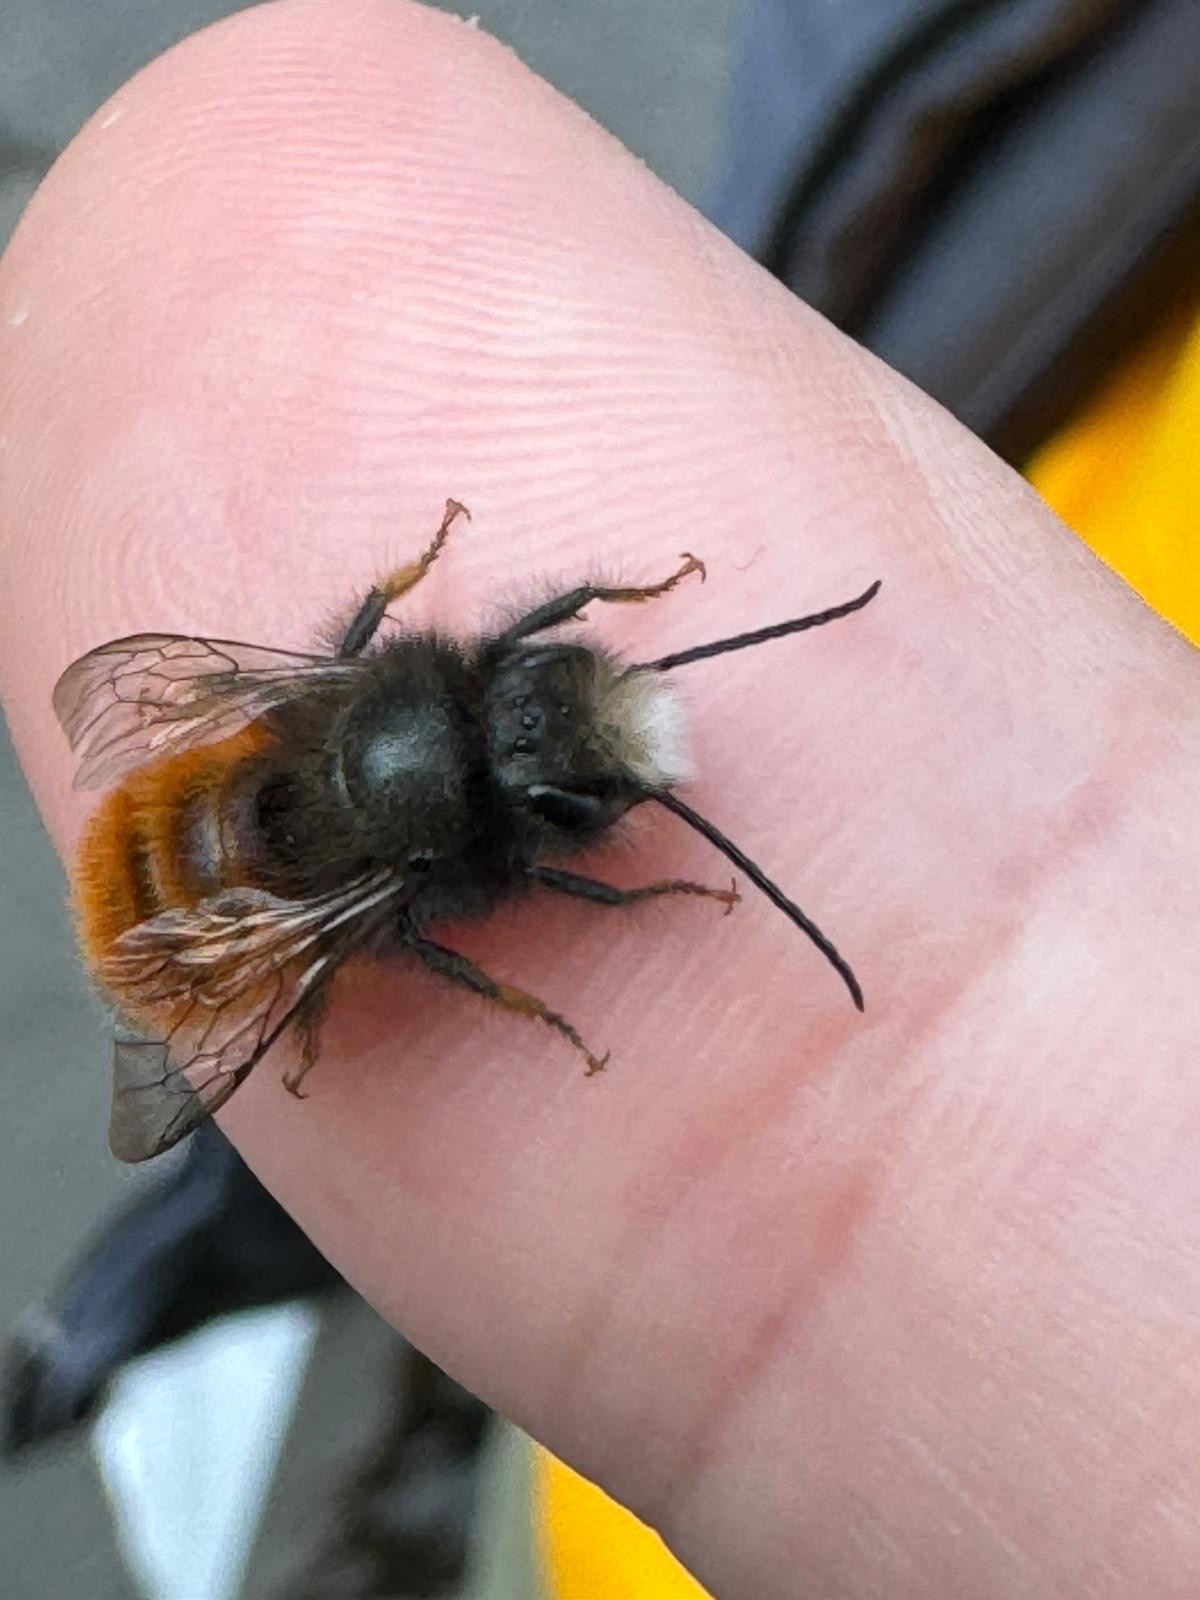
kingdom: Animalia
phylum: Arthropoda
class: Insecta
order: Hymenoptera
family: Megachilidae
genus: Osmia
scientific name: Osmia cornuta
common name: Mason bee
